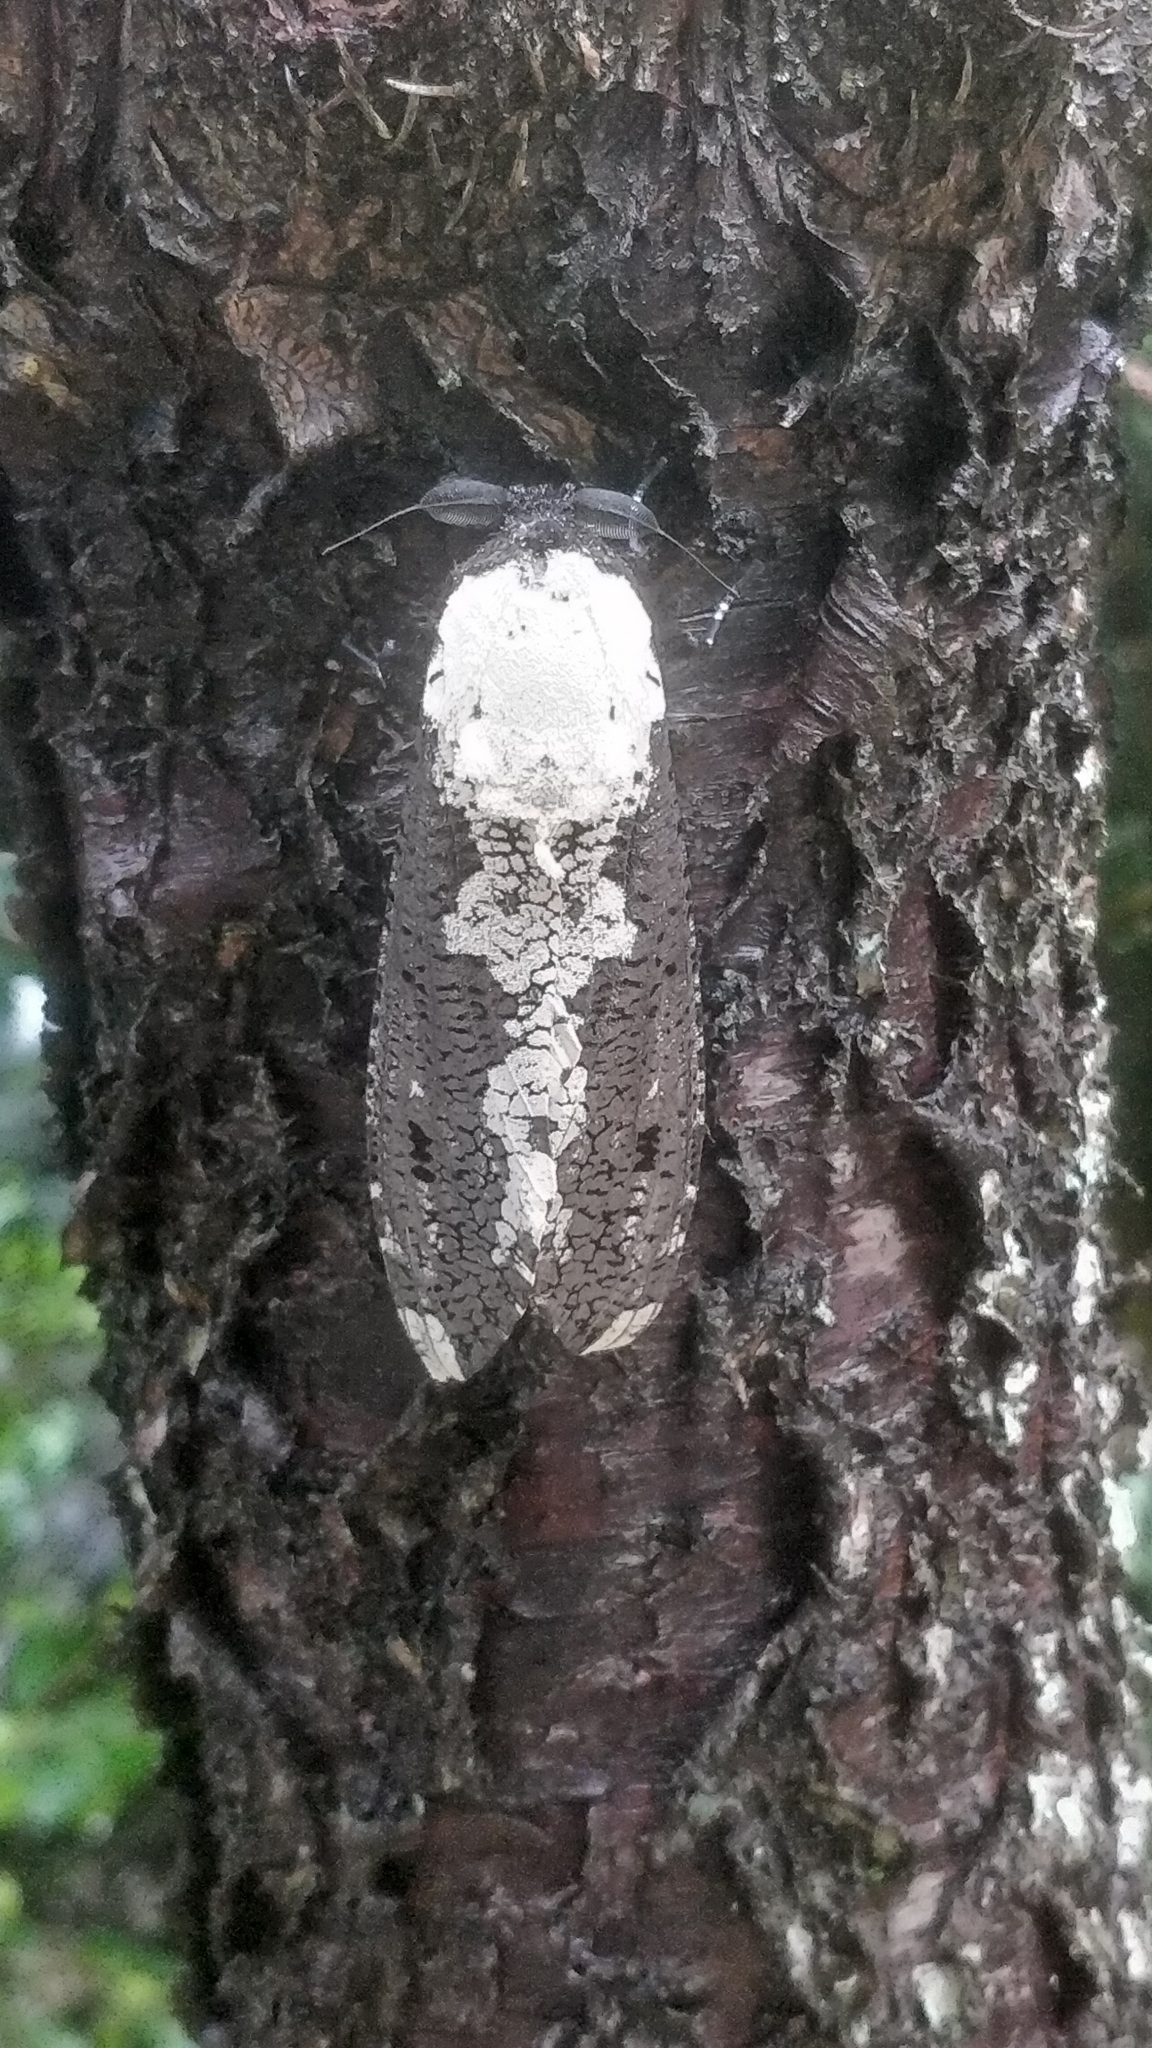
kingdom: Animalia
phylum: Arthropoda
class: Insecta
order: Lepidoptera
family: Cossidae
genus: Xyleutes
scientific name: Xyleutes persona
